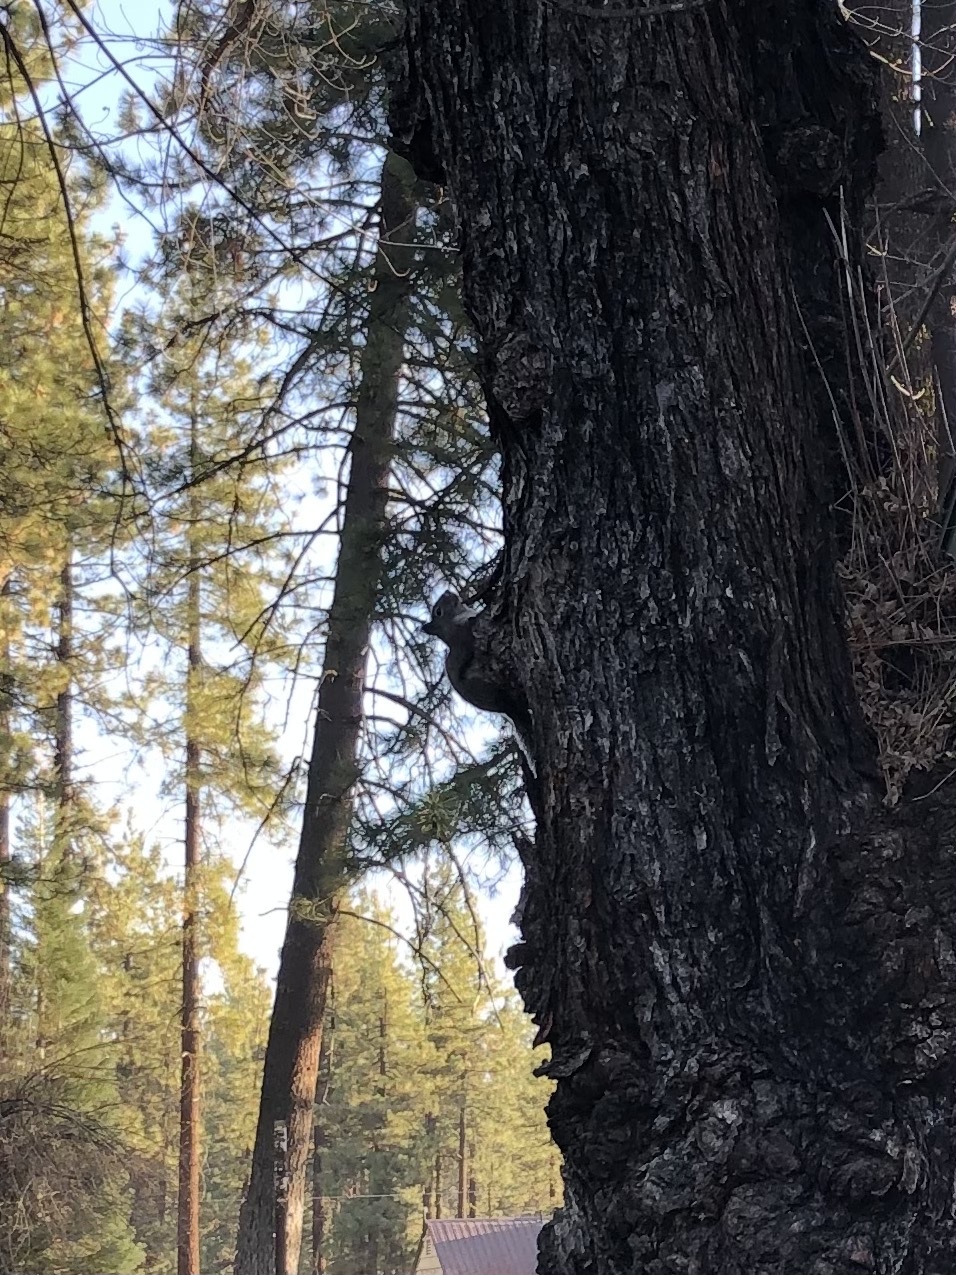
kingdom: Animalia
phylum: Chordata
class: Mammalia
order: Rodentia
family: Sciuridae
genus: Tamiasciurus
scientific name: Tamiasciurus douglasii
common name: Douglas's squirrel
